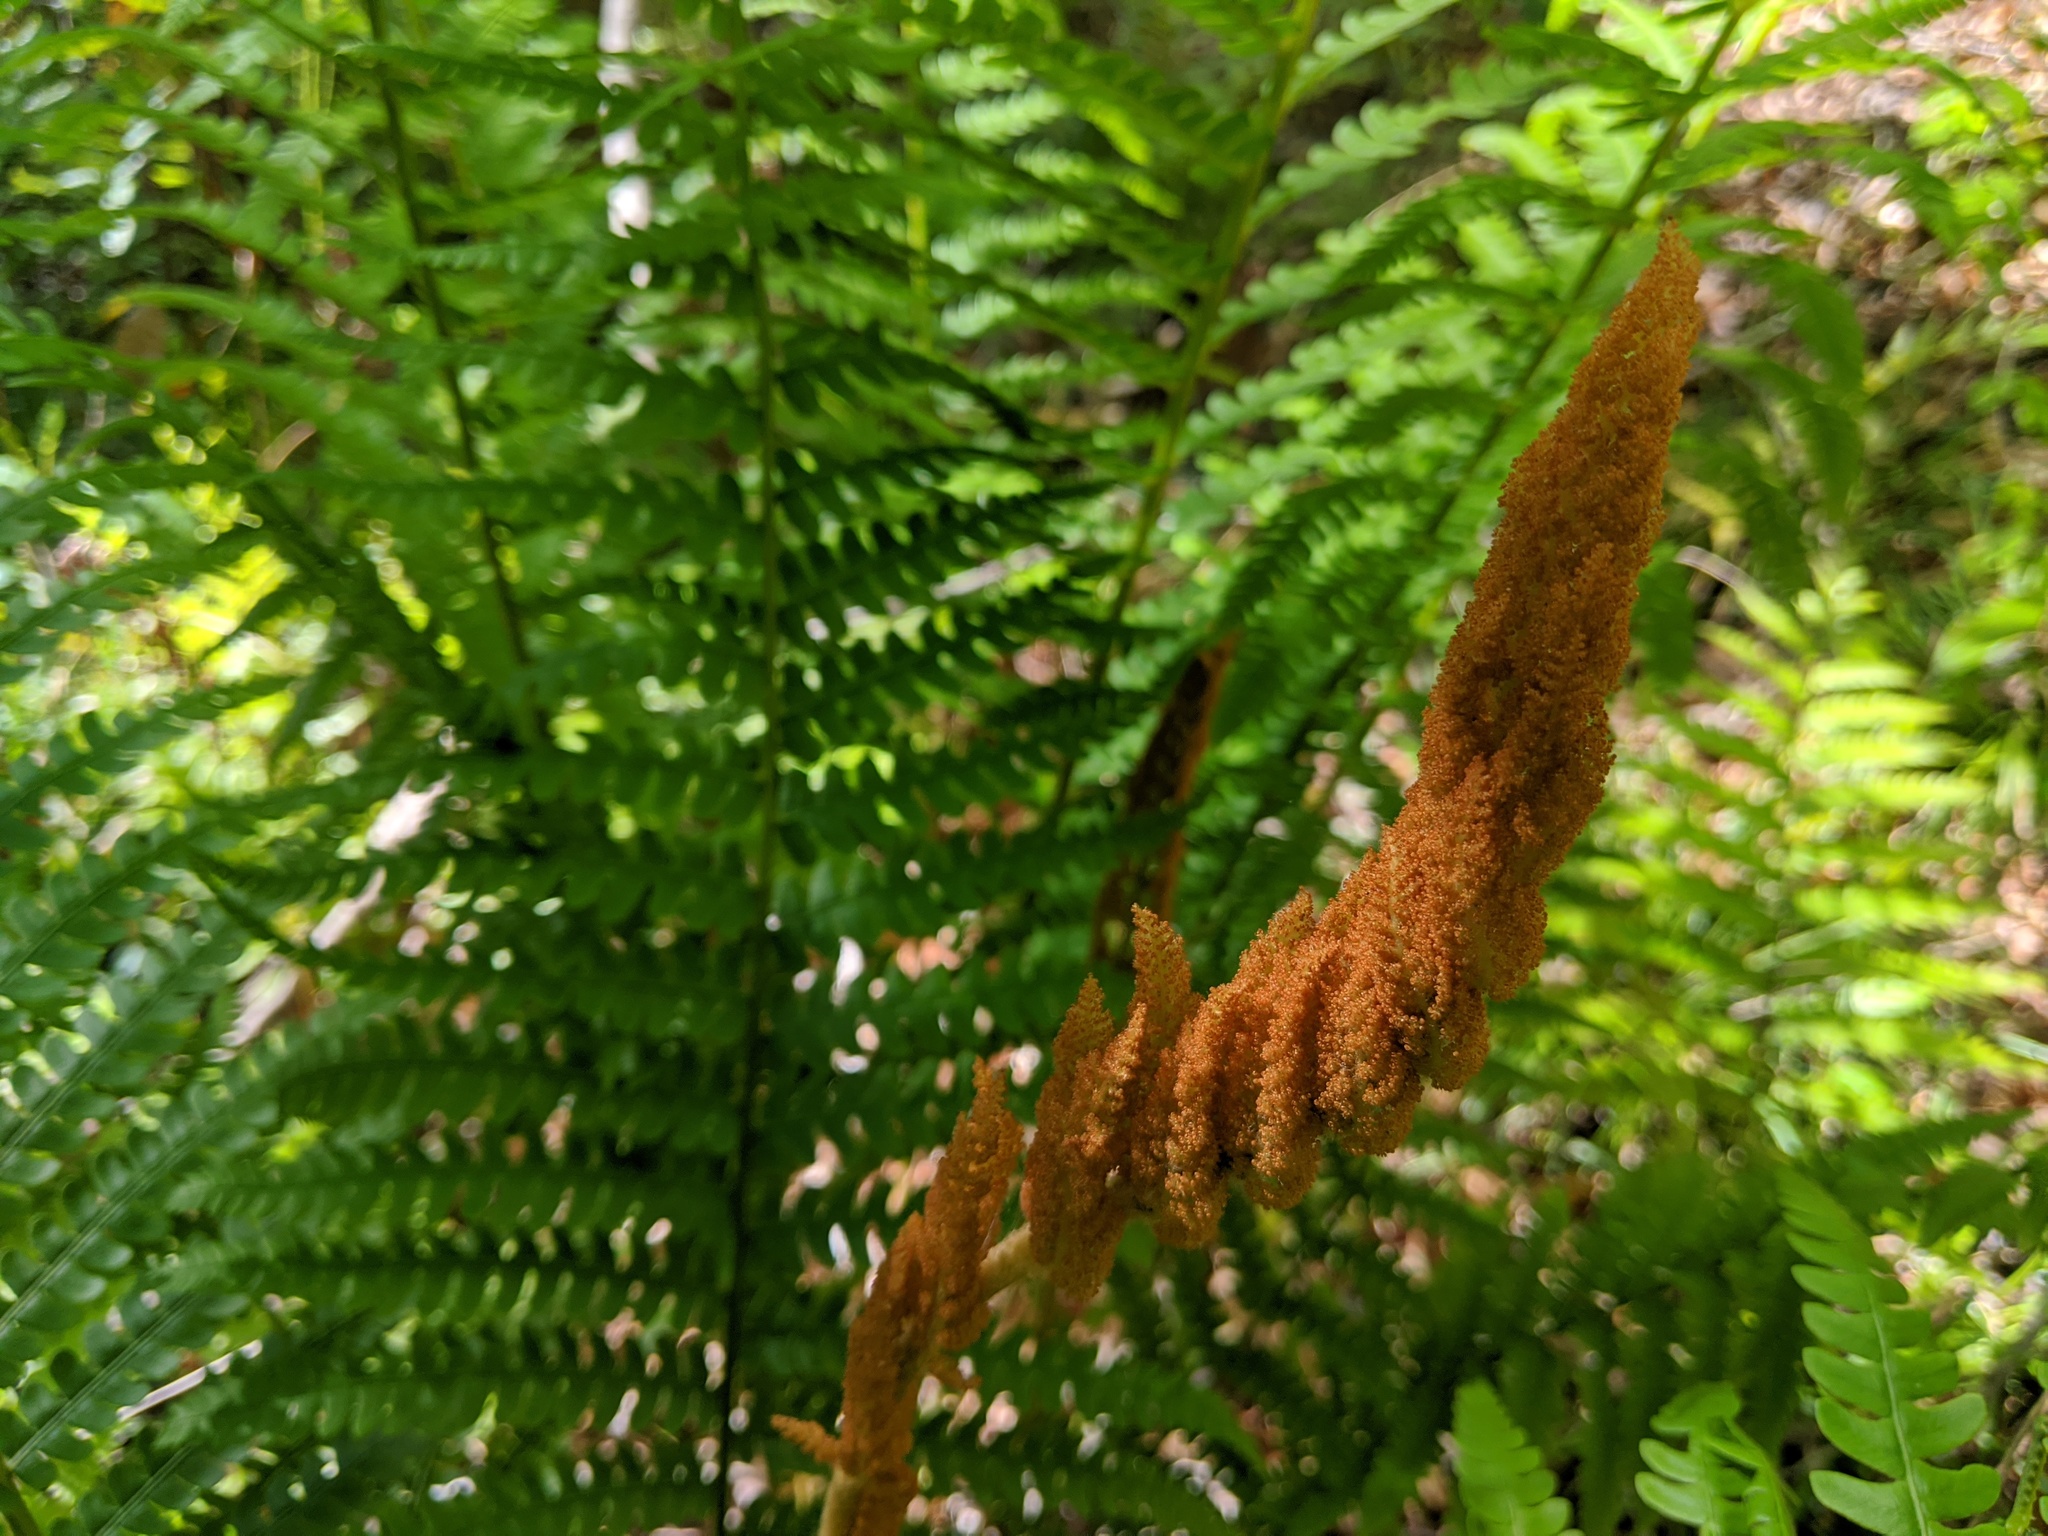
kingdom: Plantae
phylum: Tracheophyta
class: Polypodiopsida
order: Osmundales
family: Osmundaceae
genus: Osmundastrum
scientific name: Osmundastrum cinnamomeum
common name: Cinnamon fern
